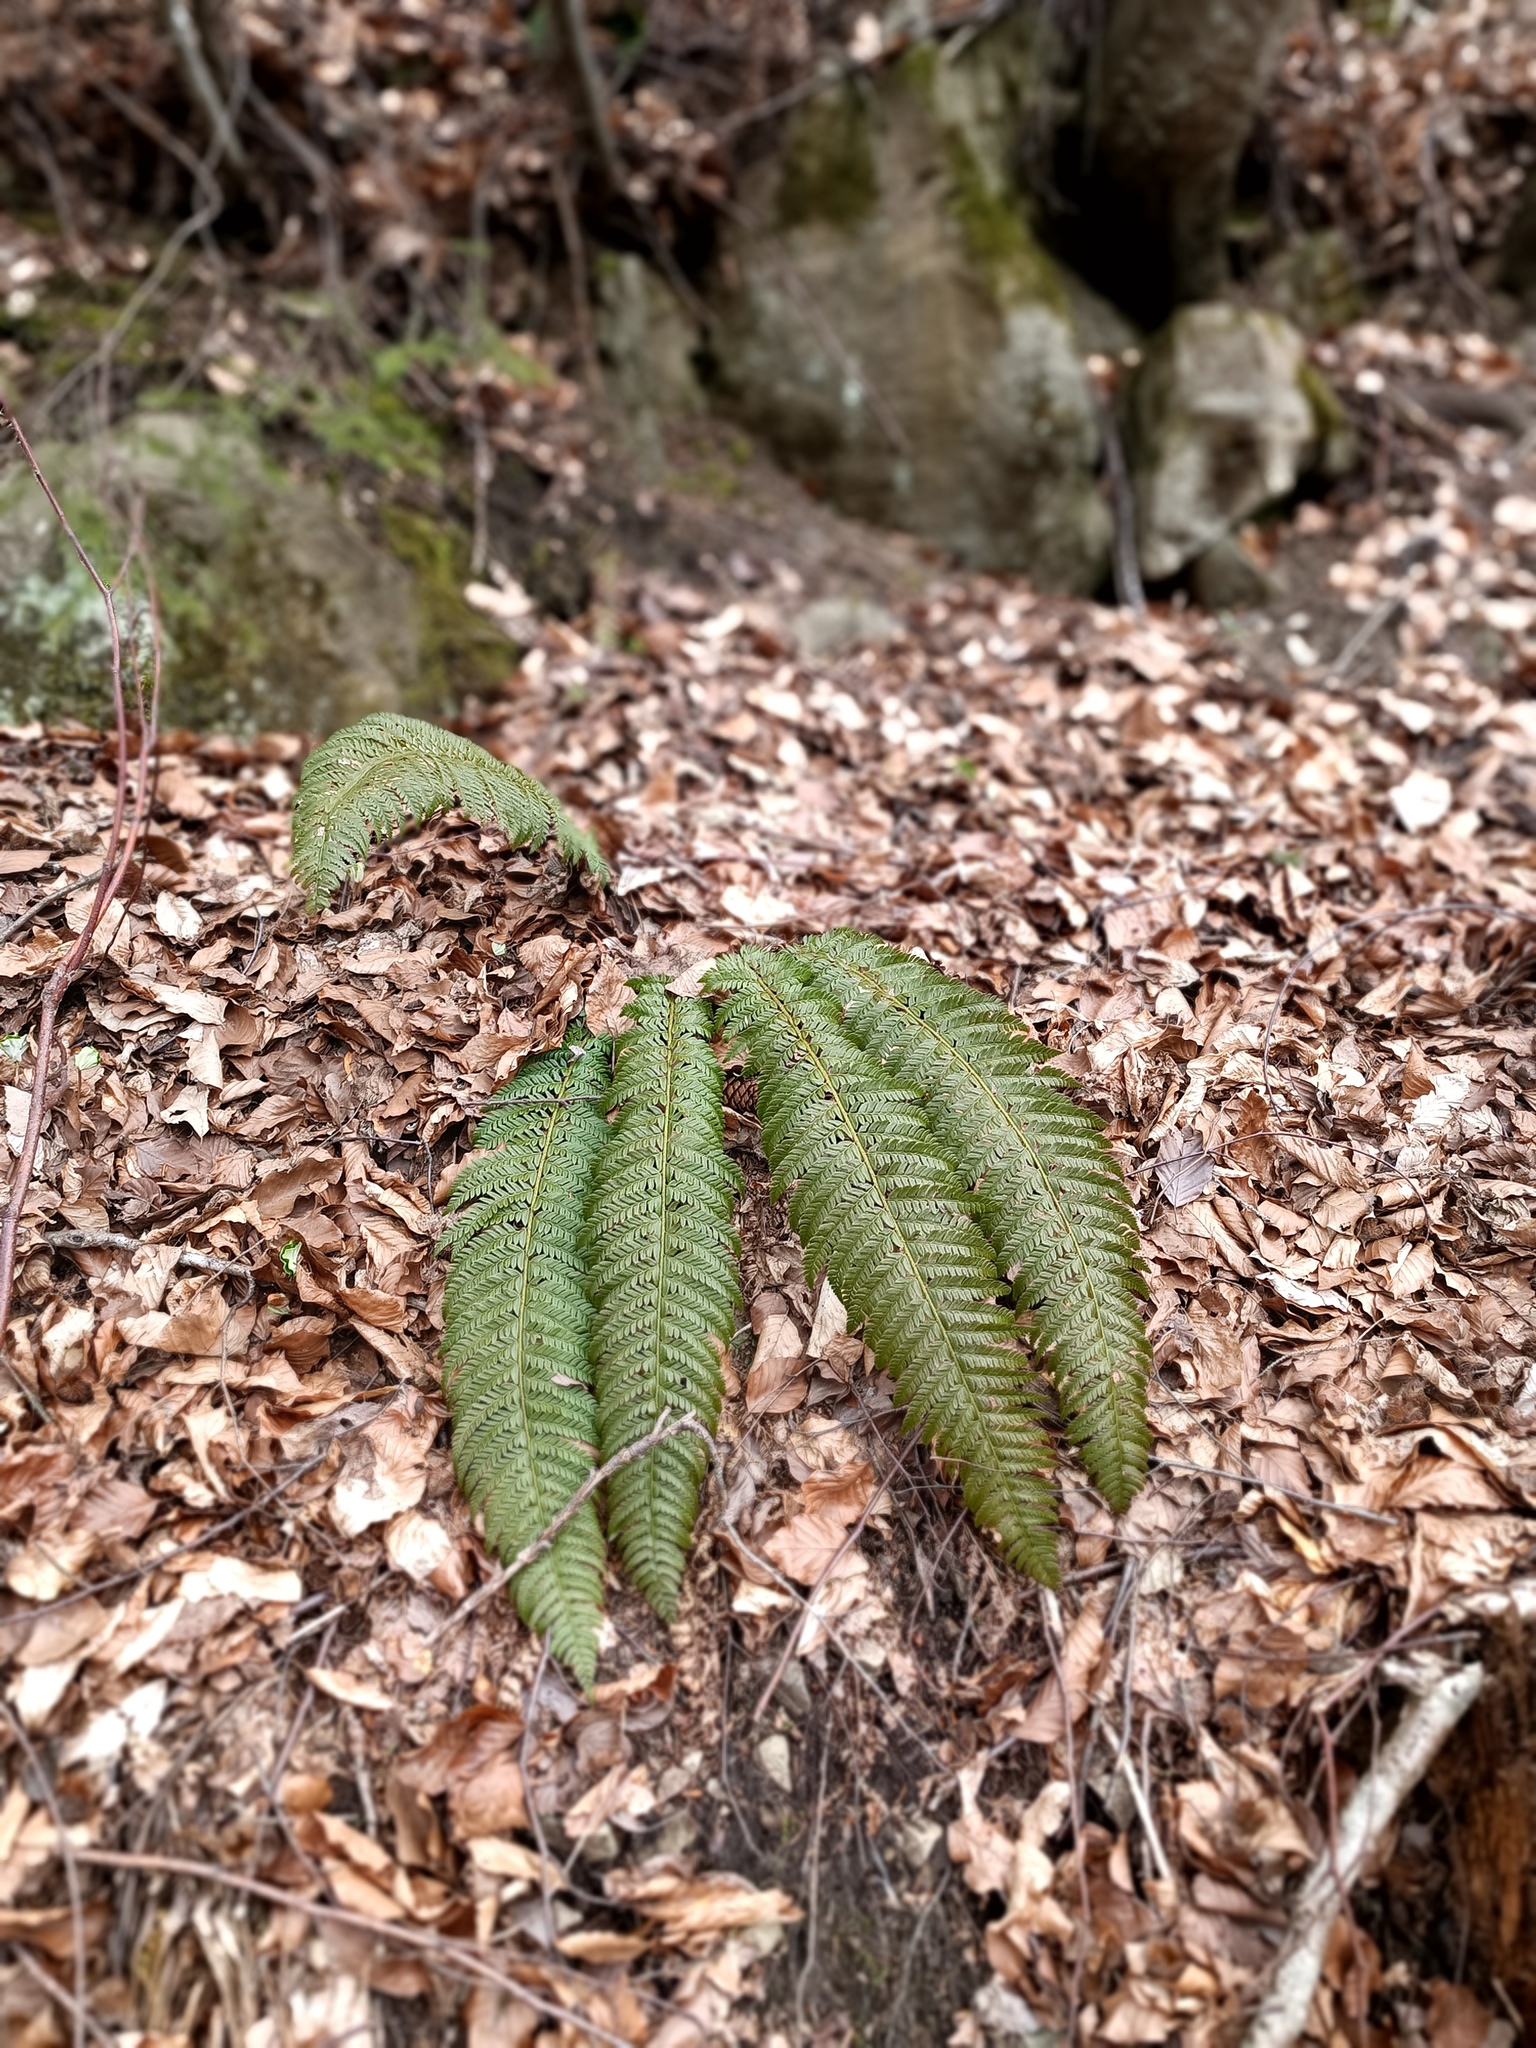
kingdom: Plantae
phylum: Tracheophyta
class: Polypodiopsida
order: Polypodiales
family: Dryopteridaceae
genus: Polystichum
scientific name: Polystichum aculeatum
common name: Hard shield-fern
